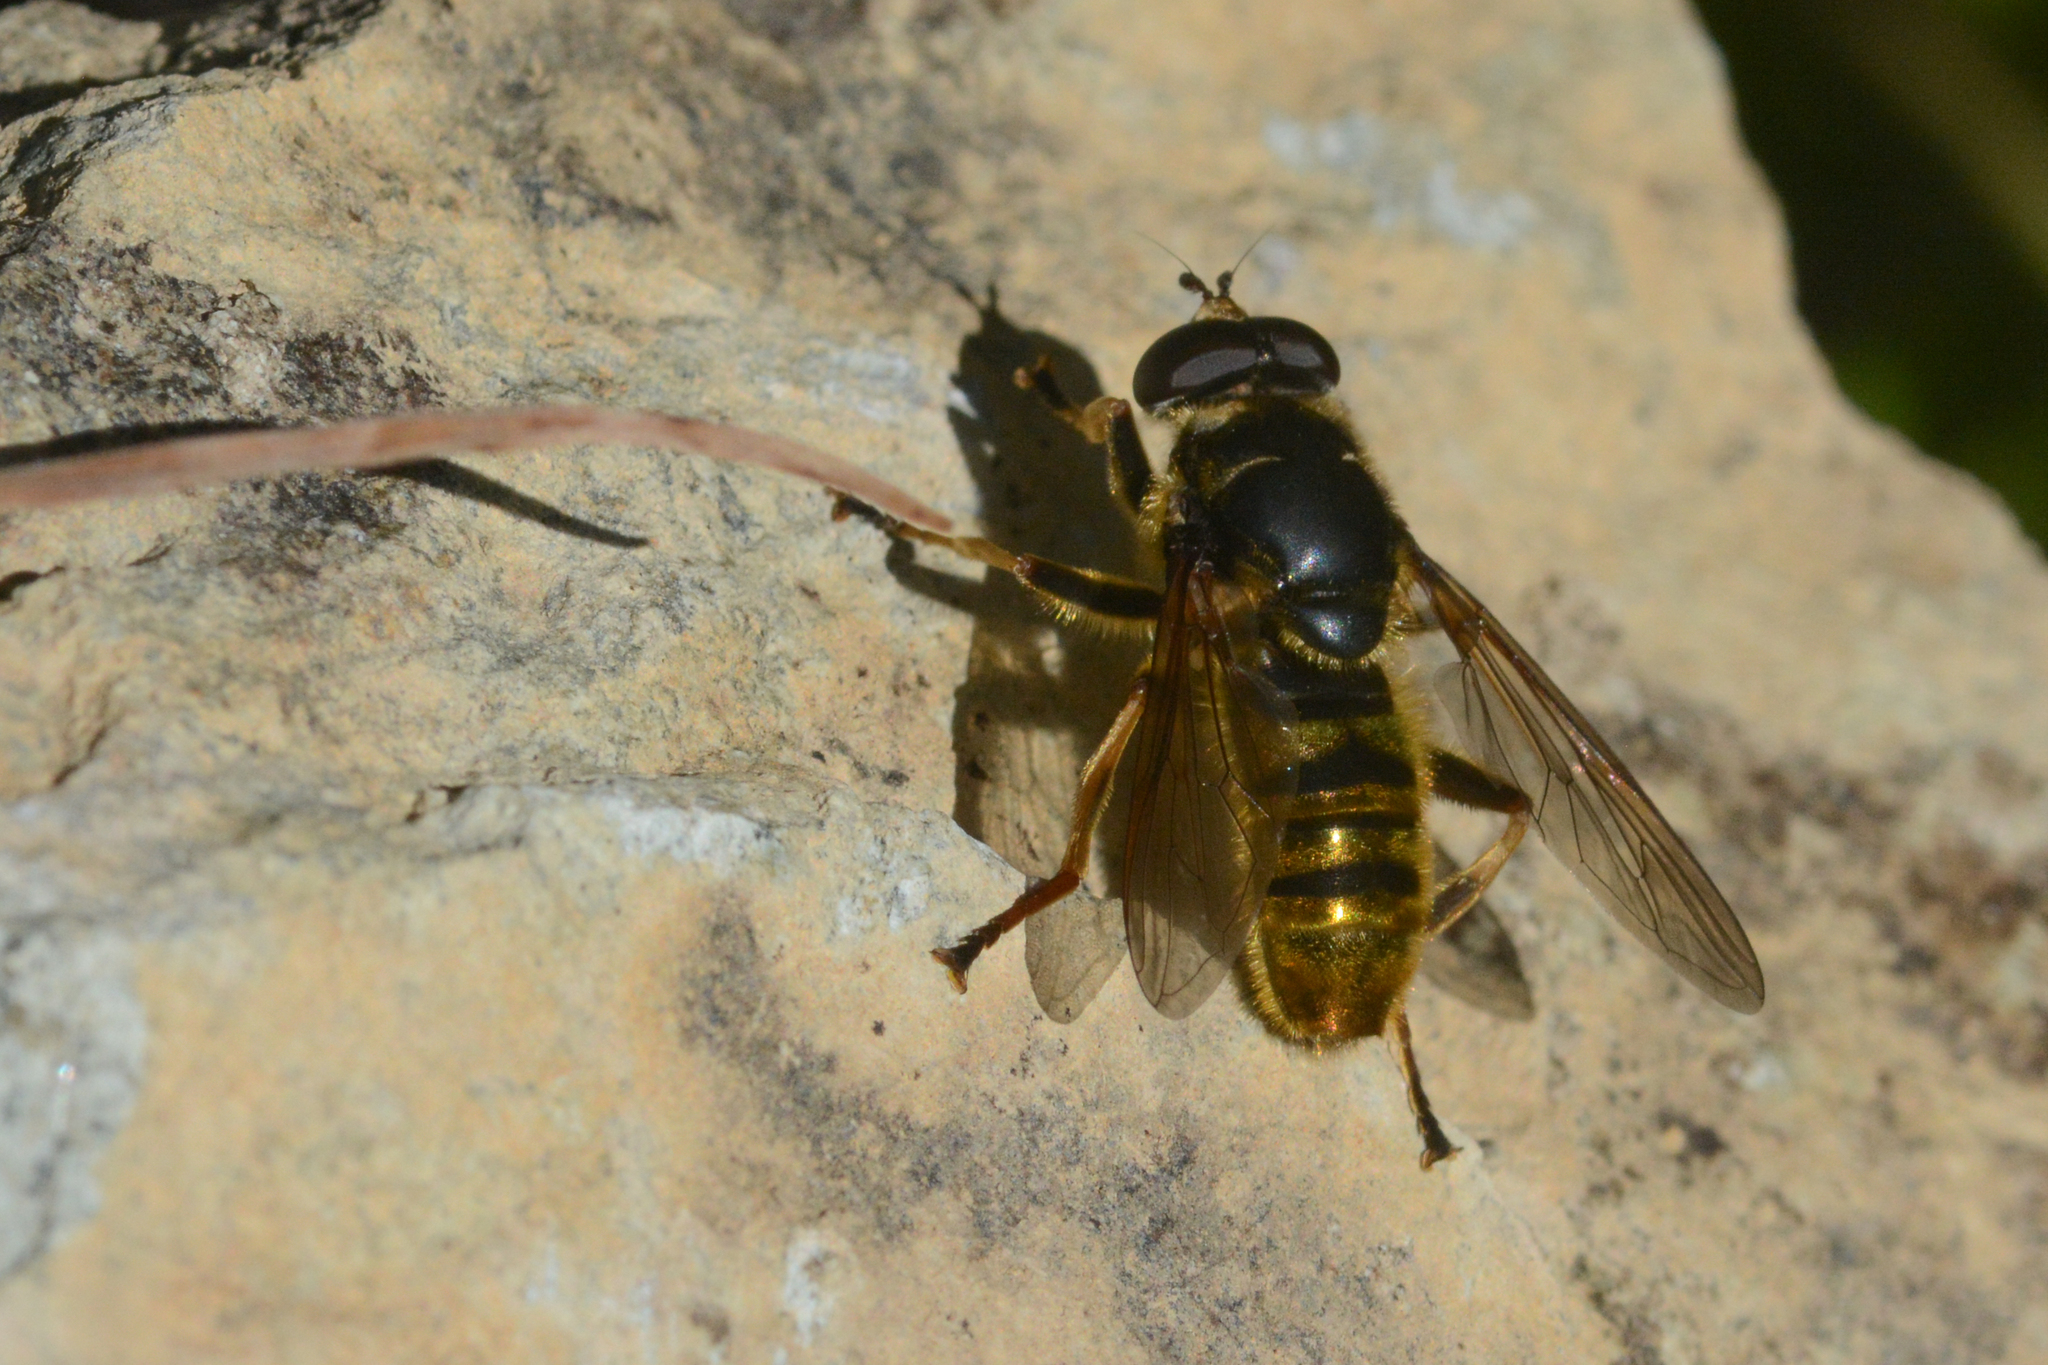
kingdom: Animalia
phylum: Arthropoda
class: Insecta
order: Diptera
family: Syrphidae
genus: Hadromyia
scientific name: Hadromyia pulchra
